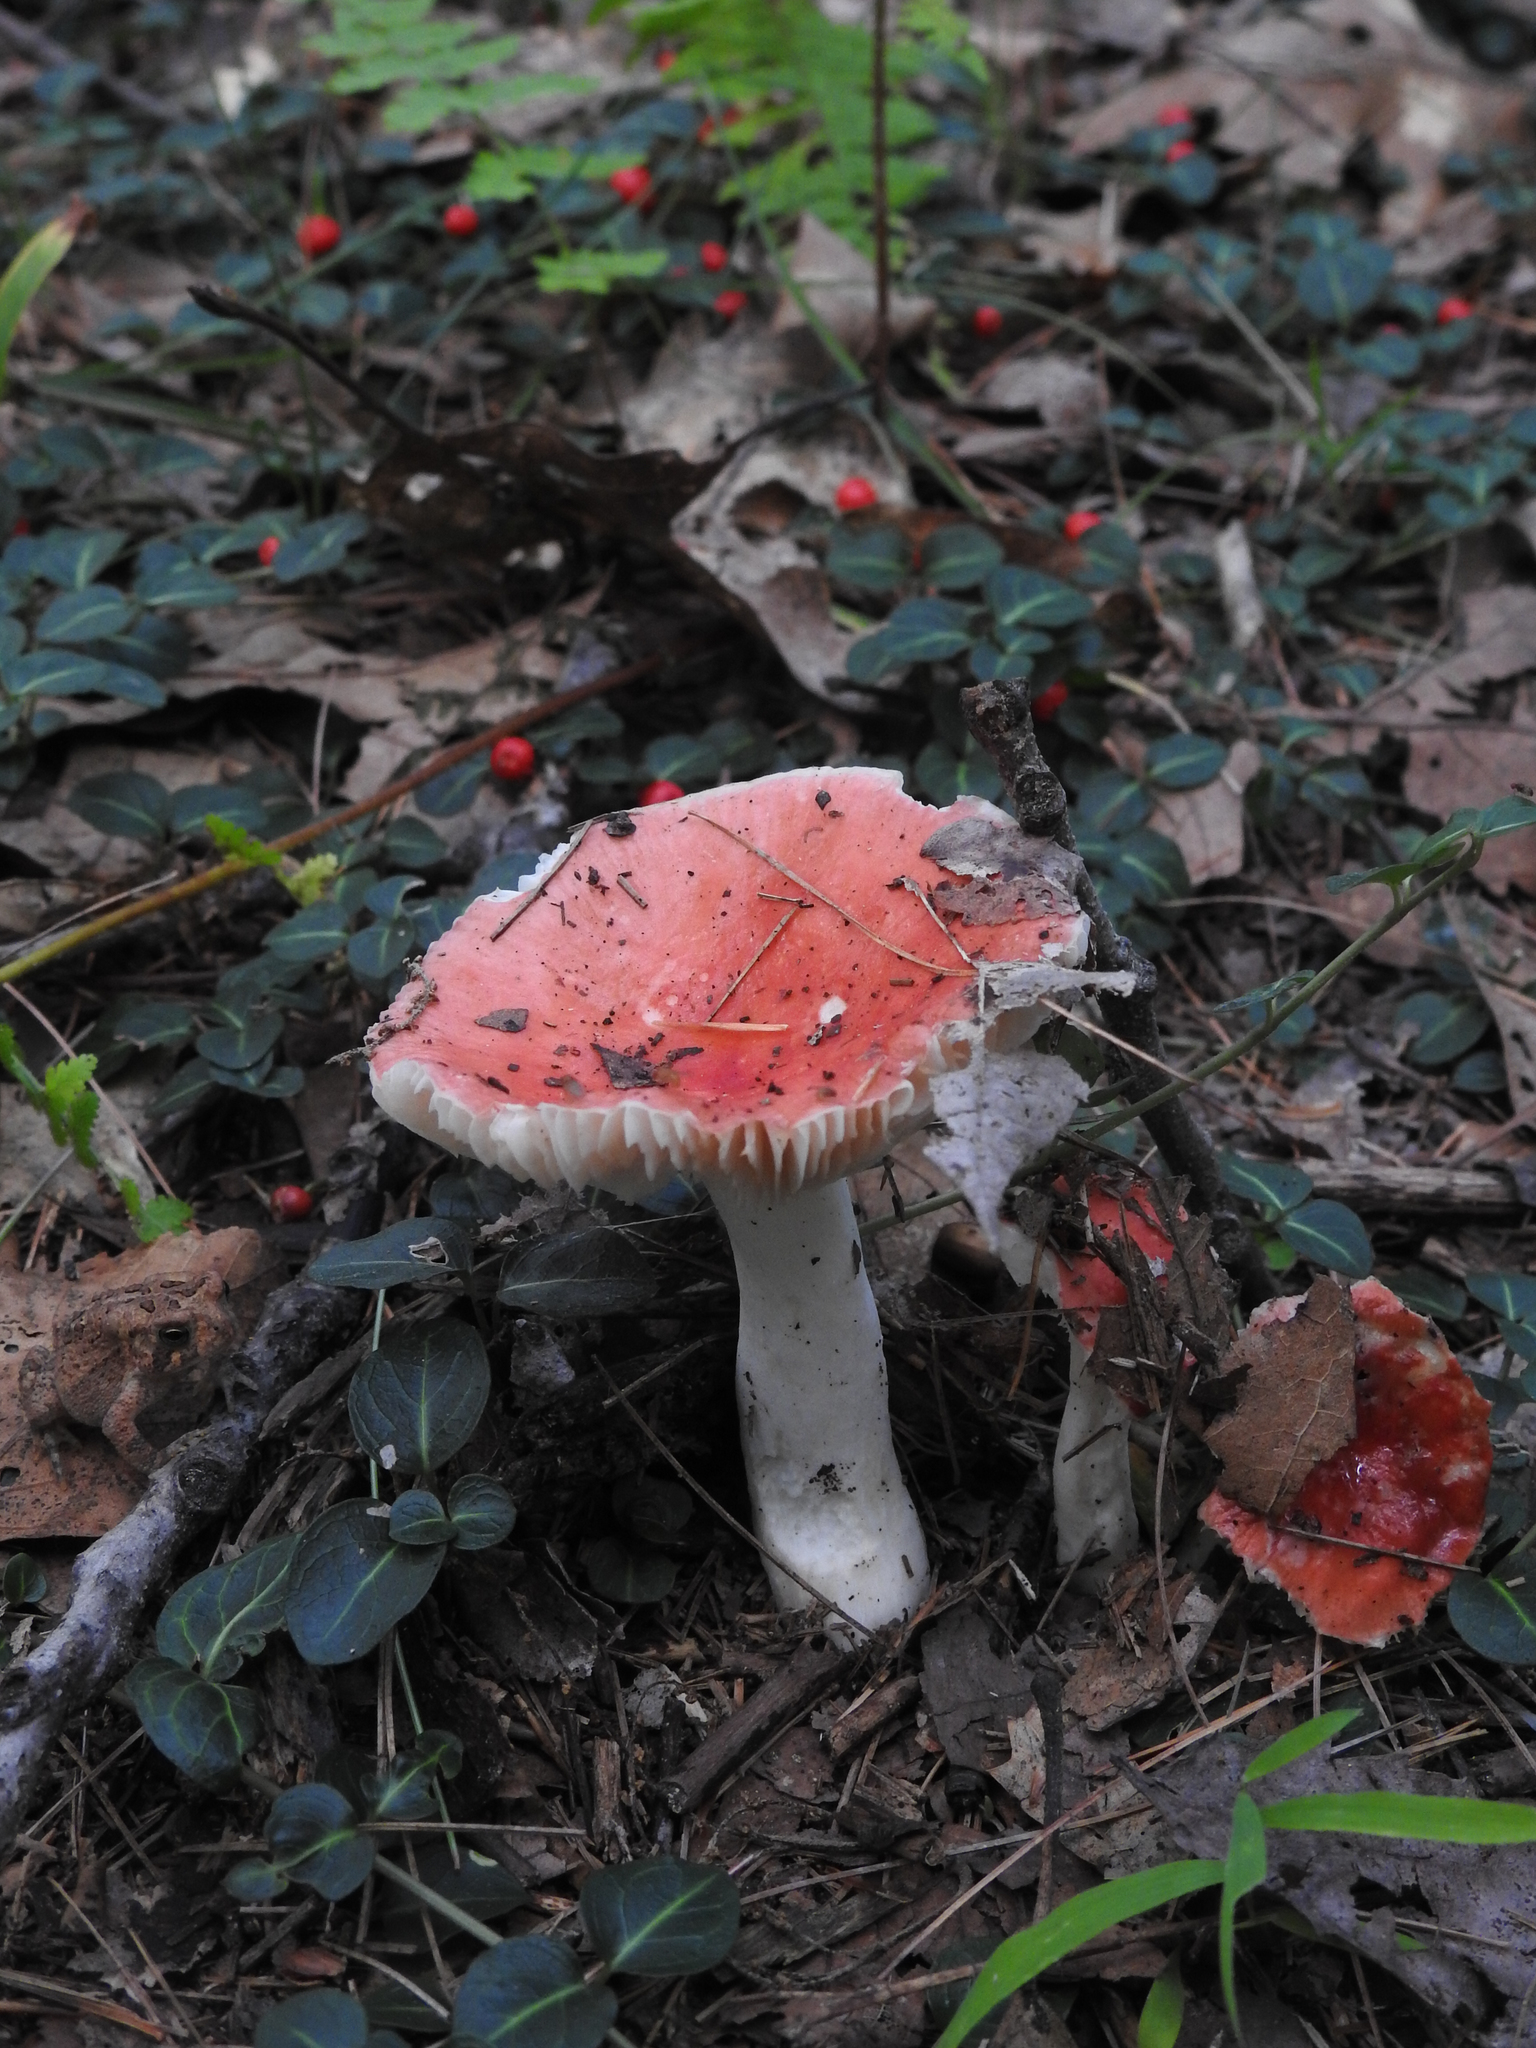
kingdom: Fungi
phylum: Basidiomycota
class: Agaricomycetes
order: Russulales
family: Russulaceae
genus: Russula
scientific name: Russula
